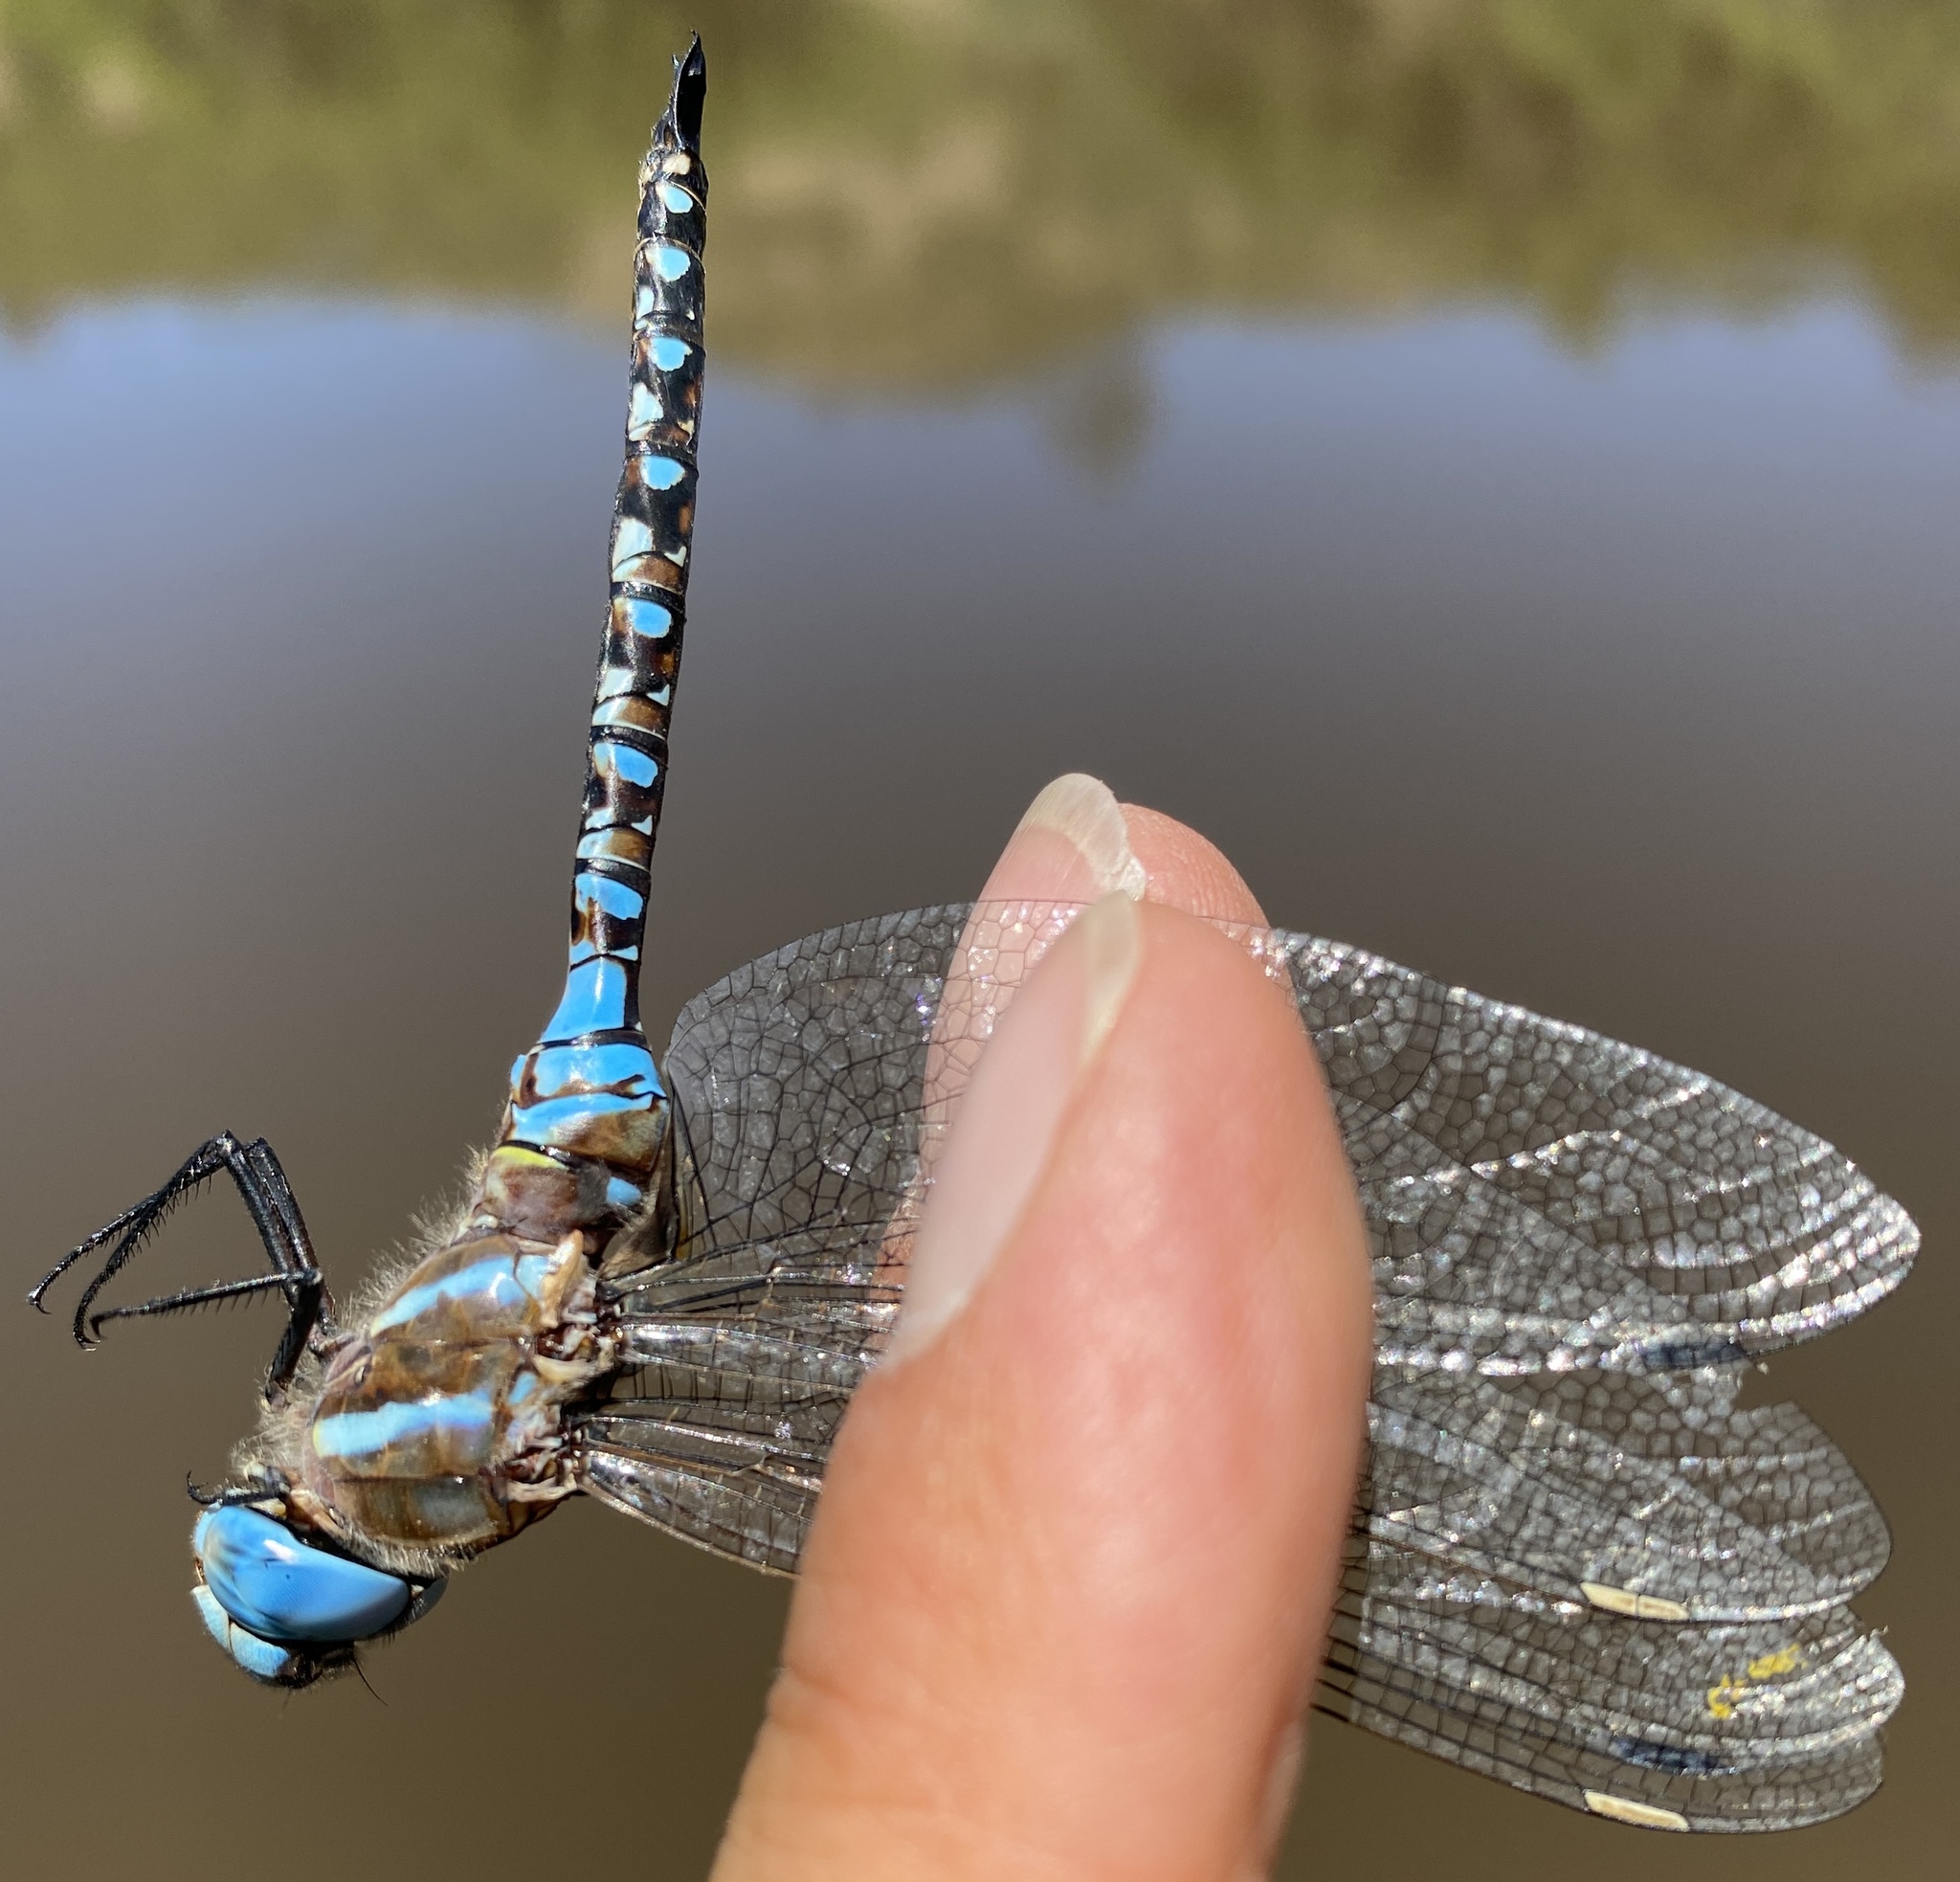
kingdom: Animalia
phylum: Arthropoda
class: Insecta
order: Odonata
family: Aeshnidae
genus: Rhionaeschna
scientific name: Rhionaeschna multicolor
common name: Blue-eyed darner
